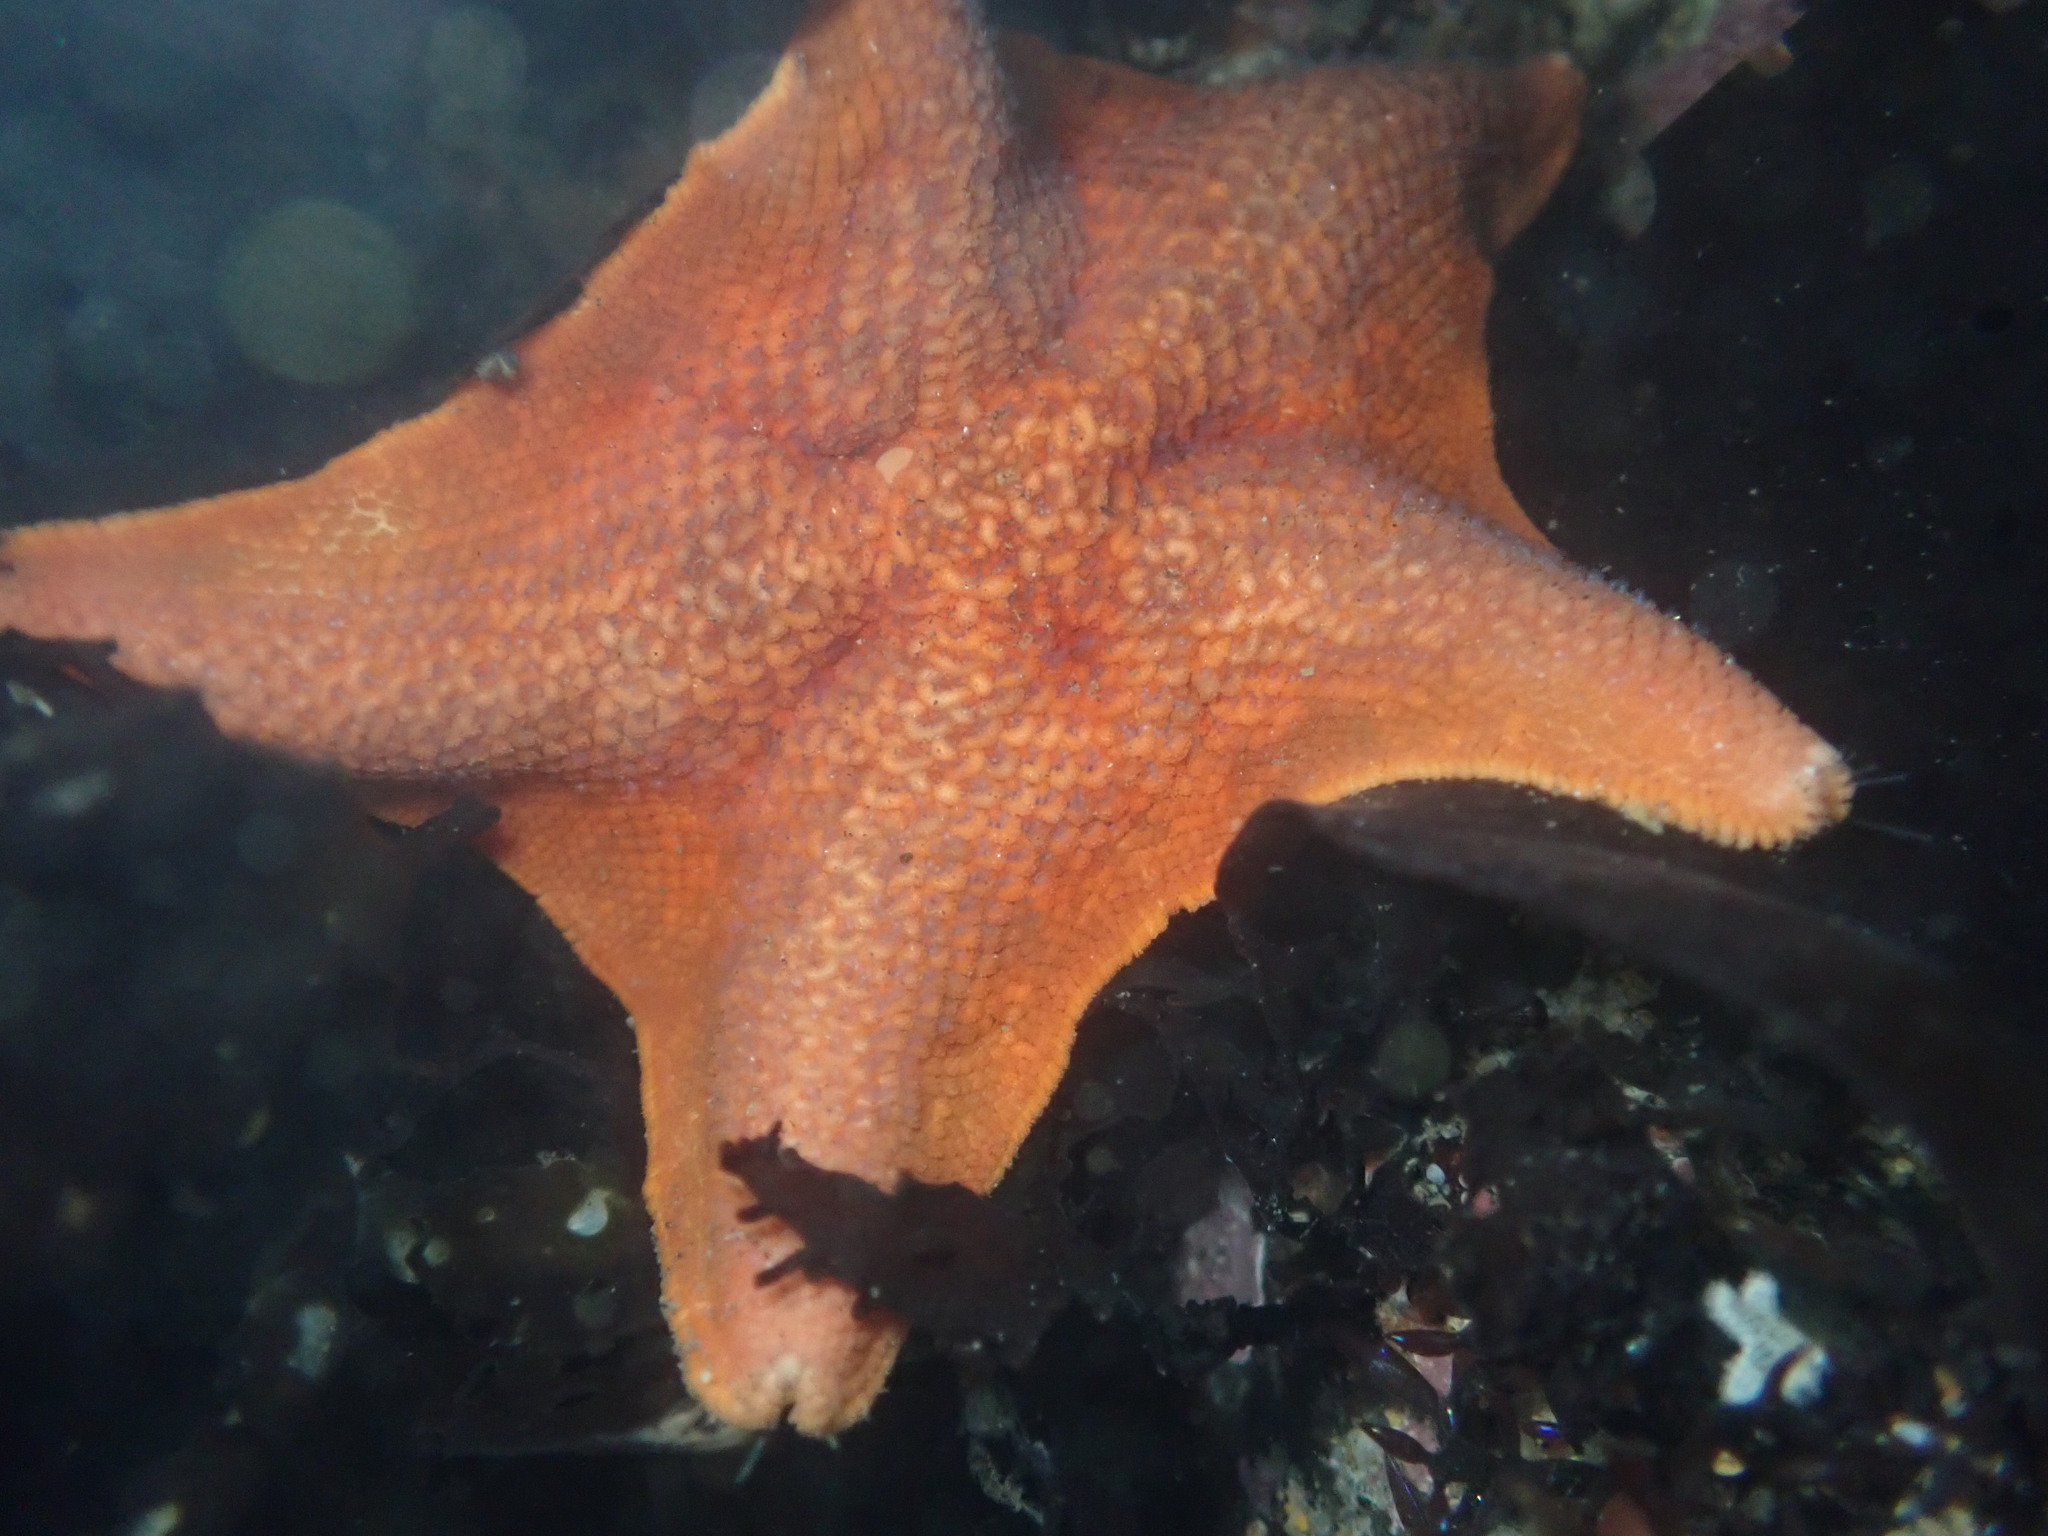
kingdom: Animalia
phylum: Echinodermata
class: Asteroidea
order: Valvatida
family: Asterinidae
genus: Patiria
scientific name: Patiria miniata
